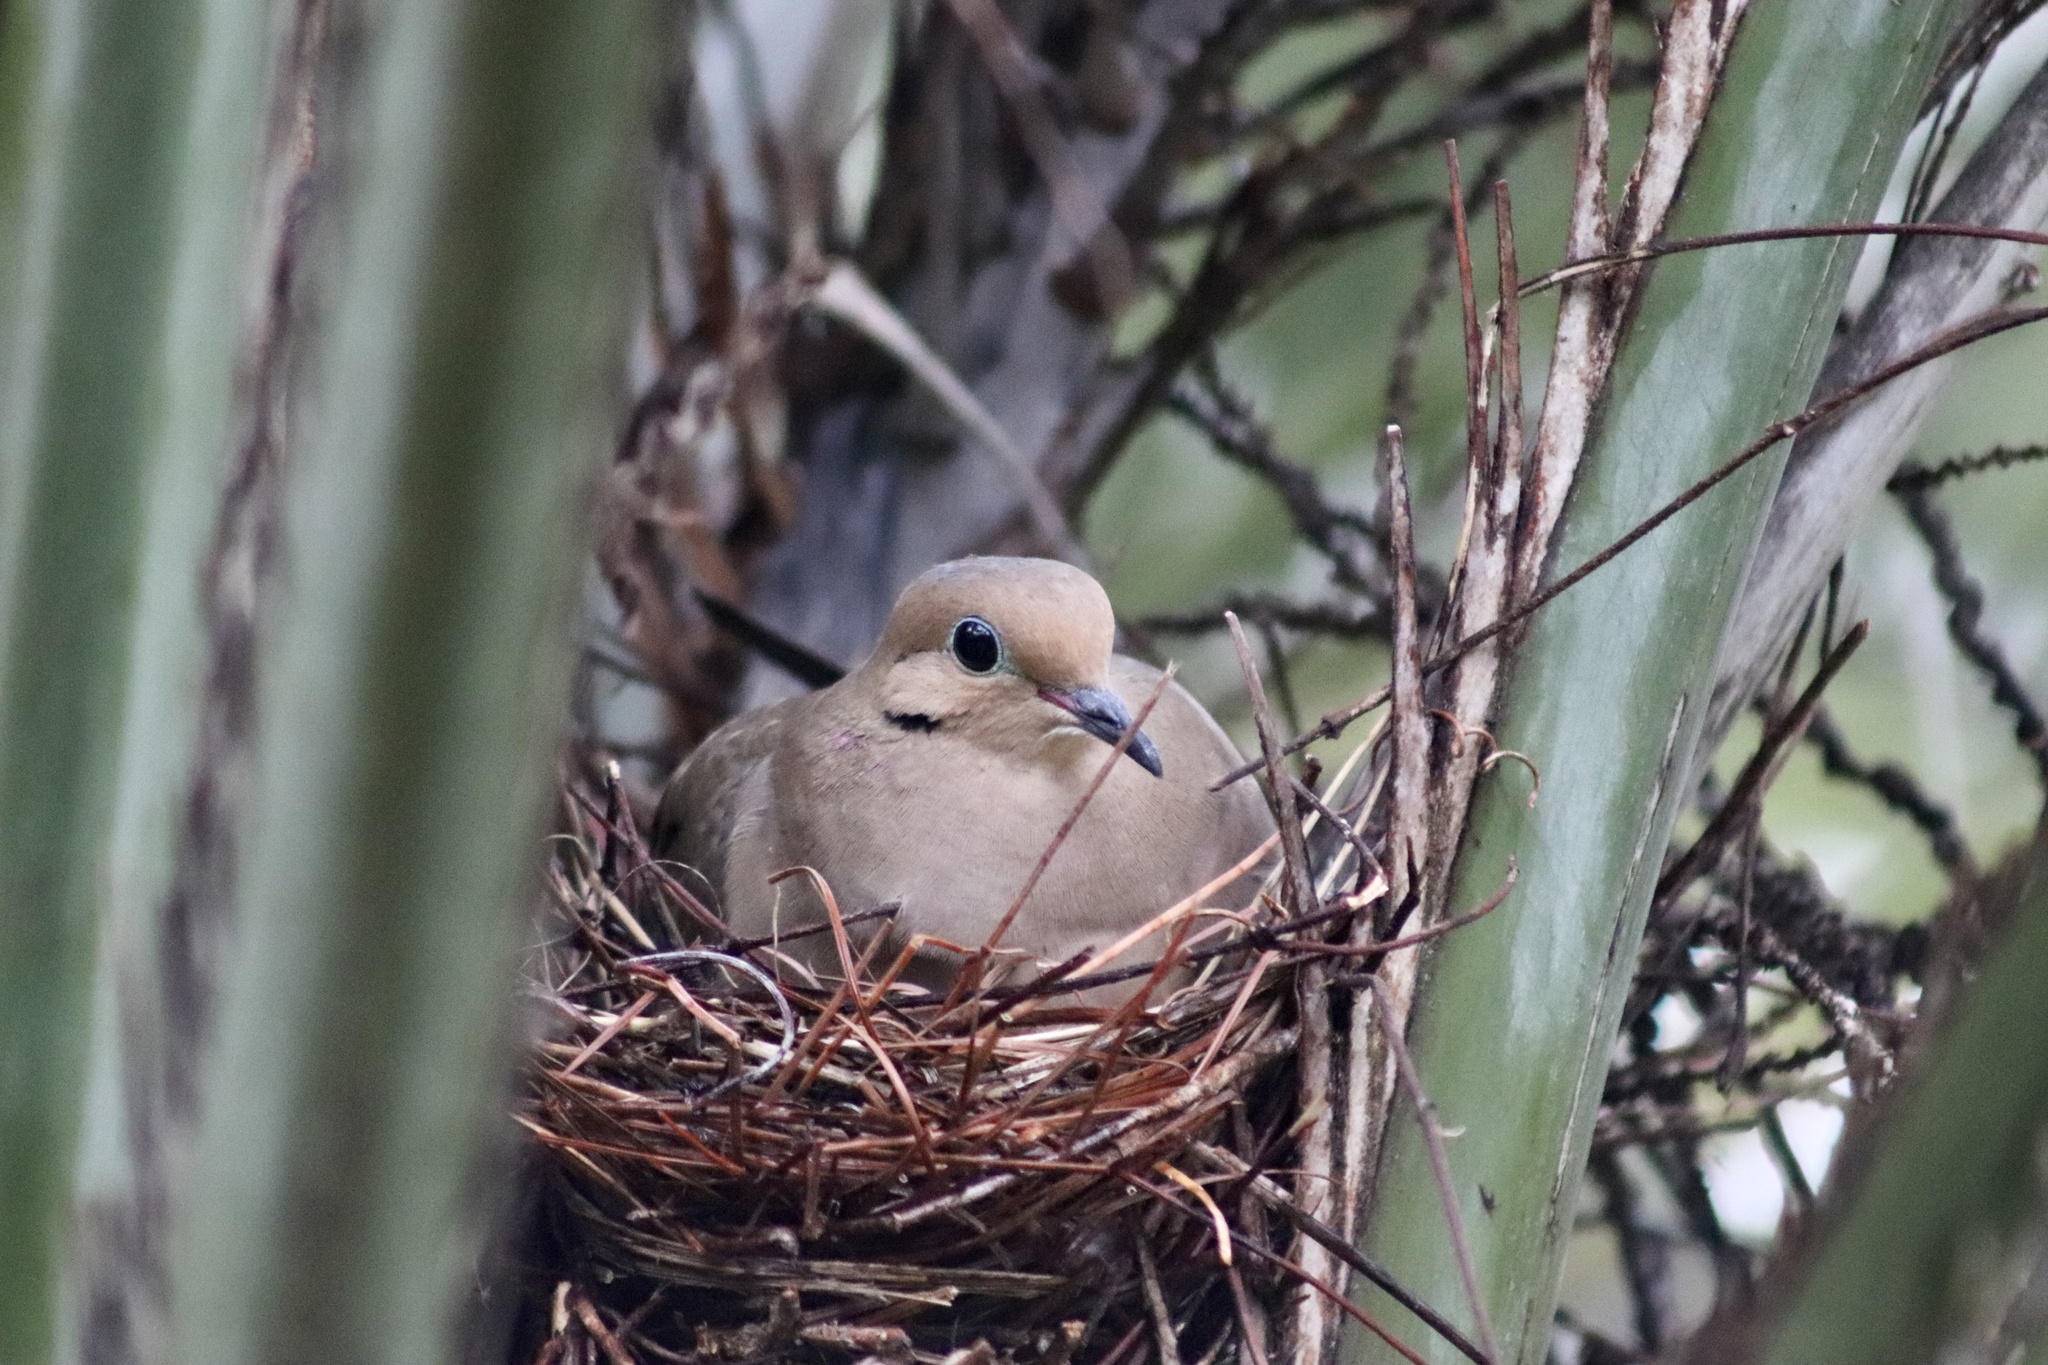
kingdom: Animalia
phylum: Chordata
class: Aves
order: Columbiformes
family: Columbidae
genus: Zenaida
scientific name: Zenaida macroura
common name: Mourning dove
